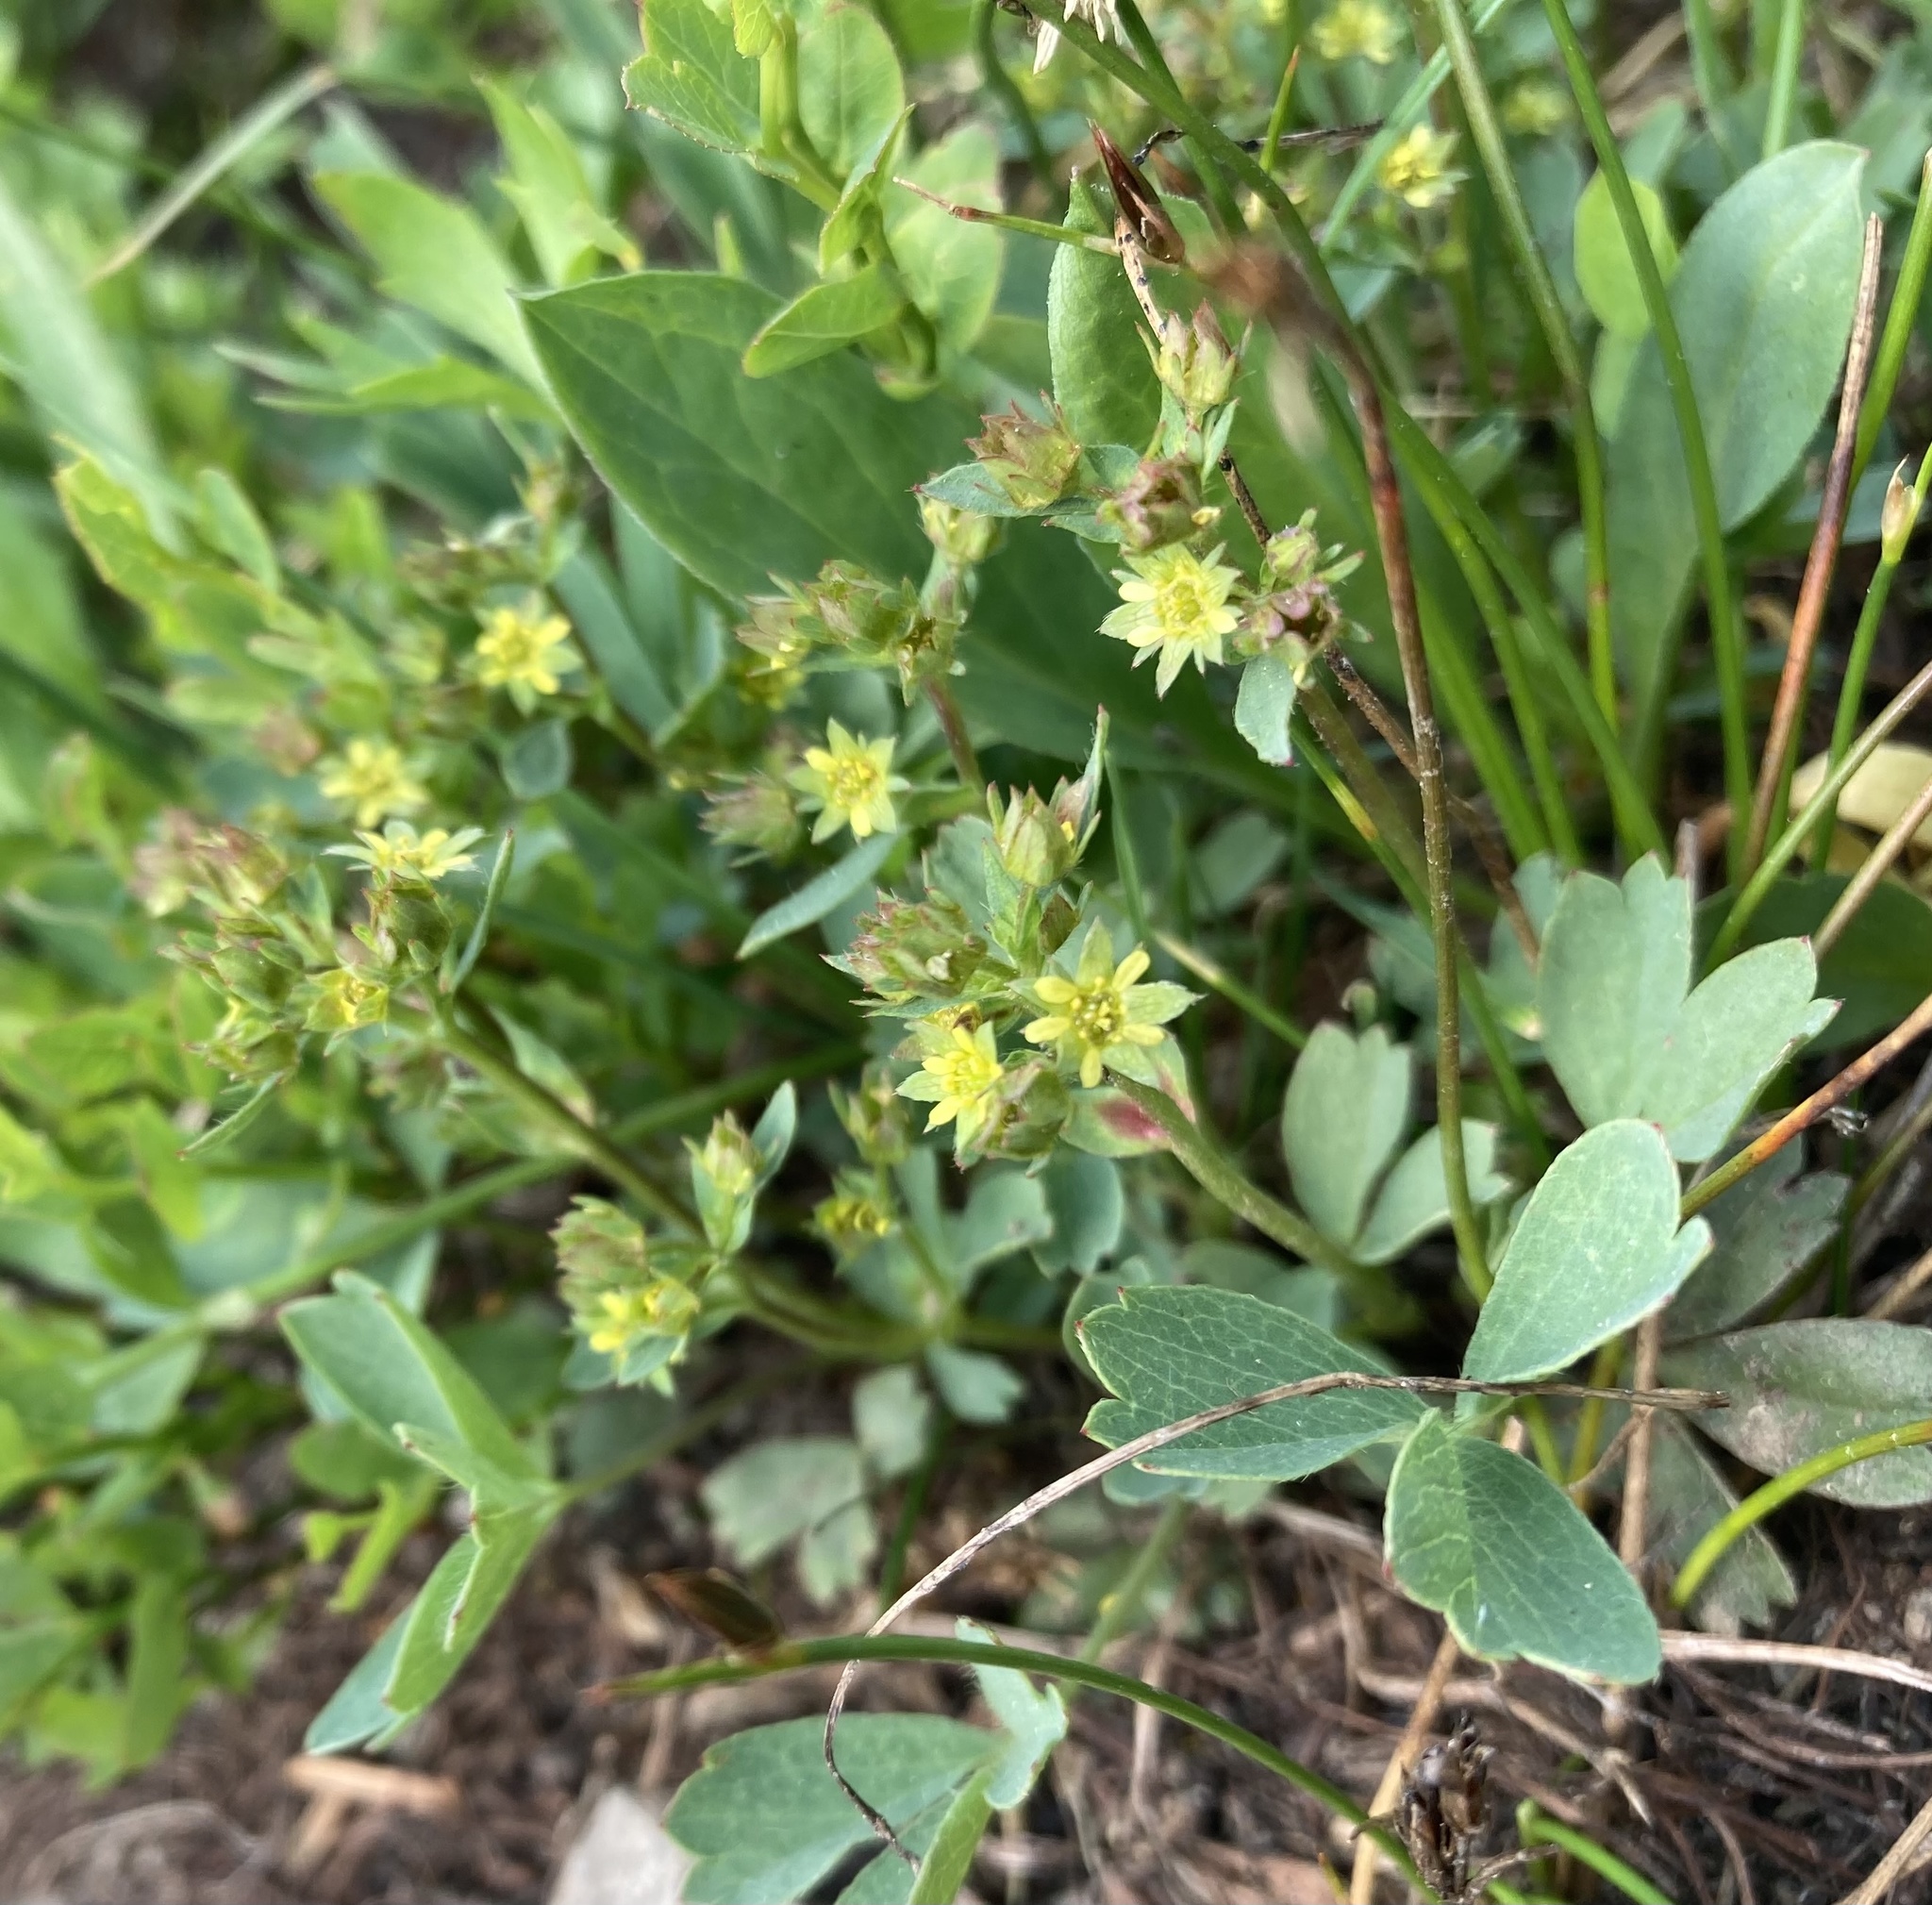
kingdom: Plantae
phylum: Tracheophyta
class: Magnoliopsida
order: Rosales
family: Rosaceae
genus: Sibbaldia
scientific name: Sibbaldia procumbens
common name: Creeping sibbaldia
